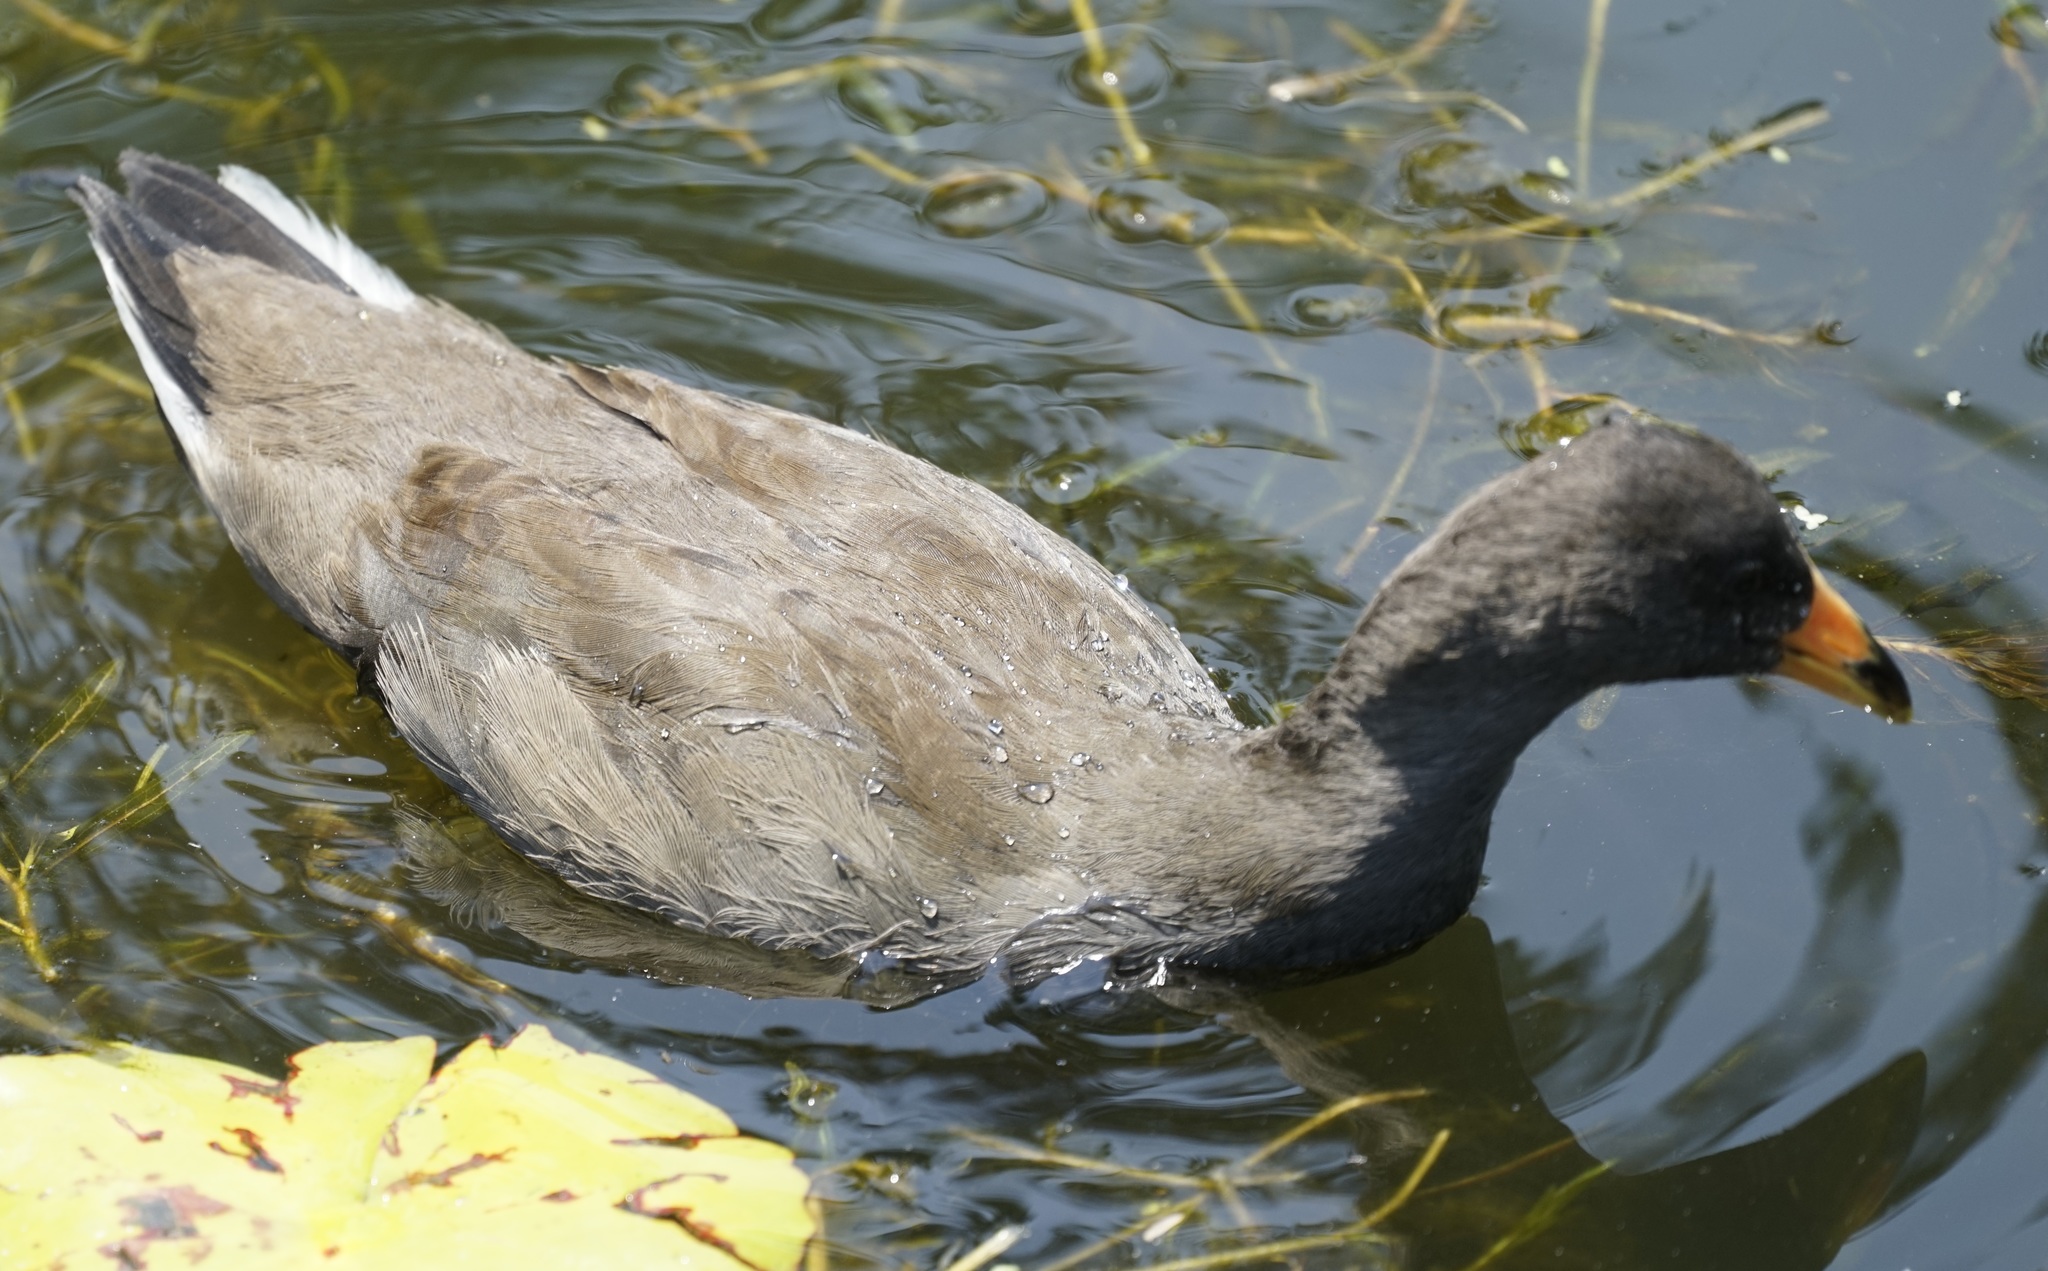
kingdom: Animalia
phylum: Chordata
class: Aves
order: Gruiformes
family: Rallidae
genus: Gallinula
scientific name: Gallinula tenebrosa
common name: Dusky moorhen
